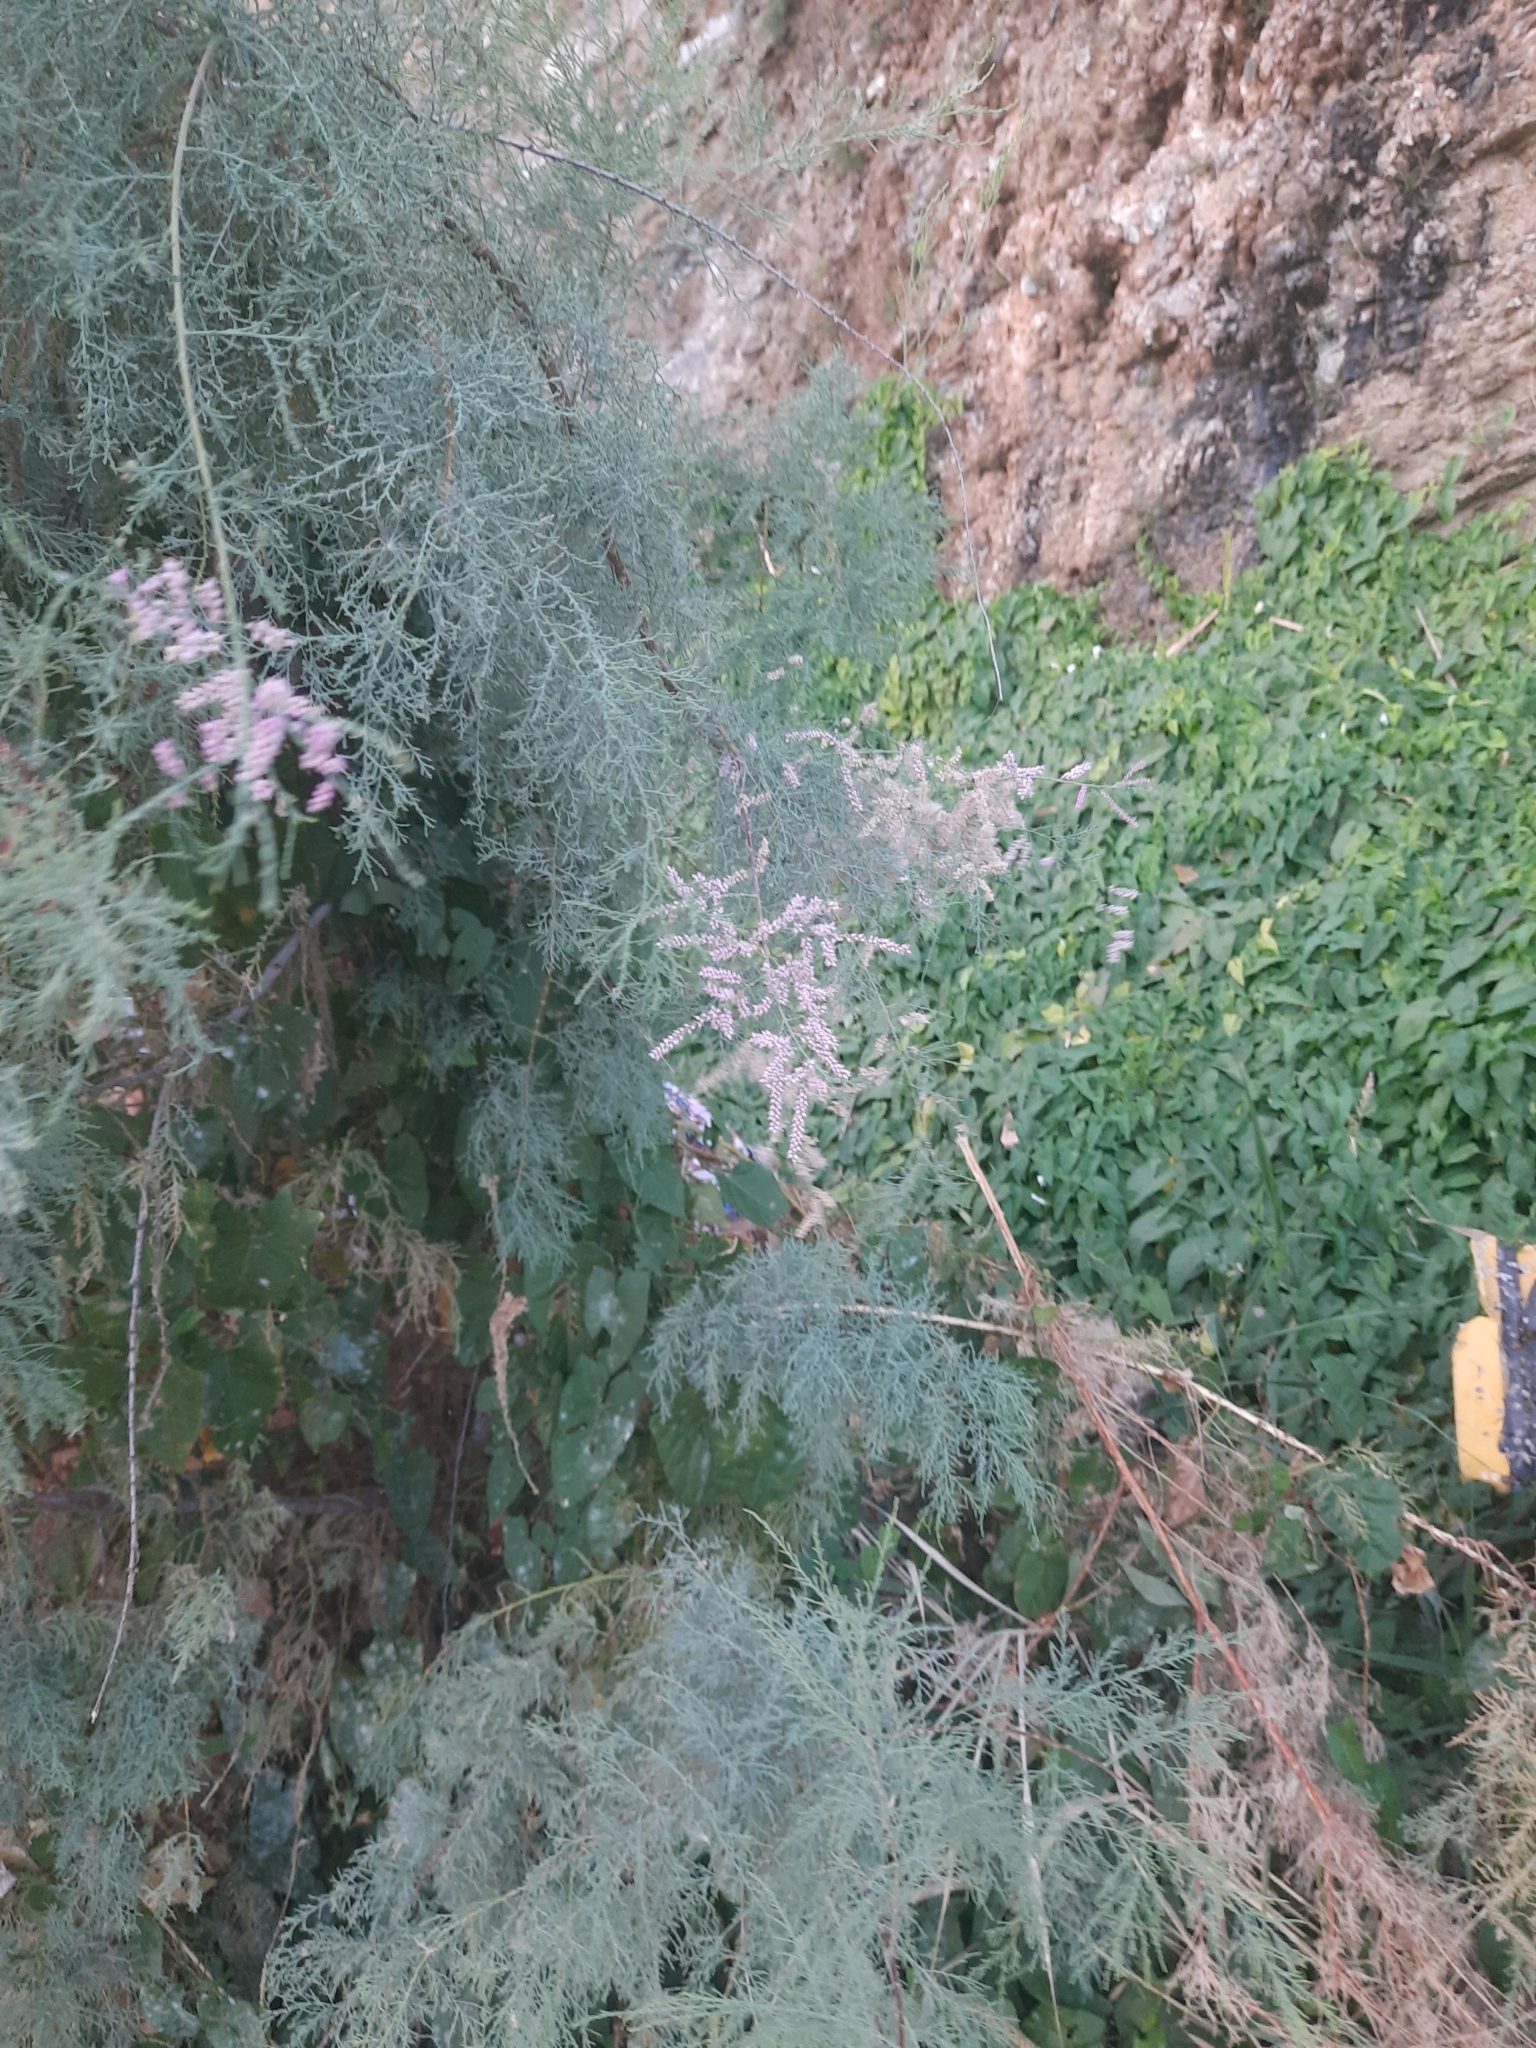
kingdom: Plantae
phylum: Tracheophyta
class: Magnoliopsida
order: Caryophyllales
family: Tamaricaceae
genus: Tamarix
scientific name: Tamarix ramosissima
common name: Pink tamarisk
